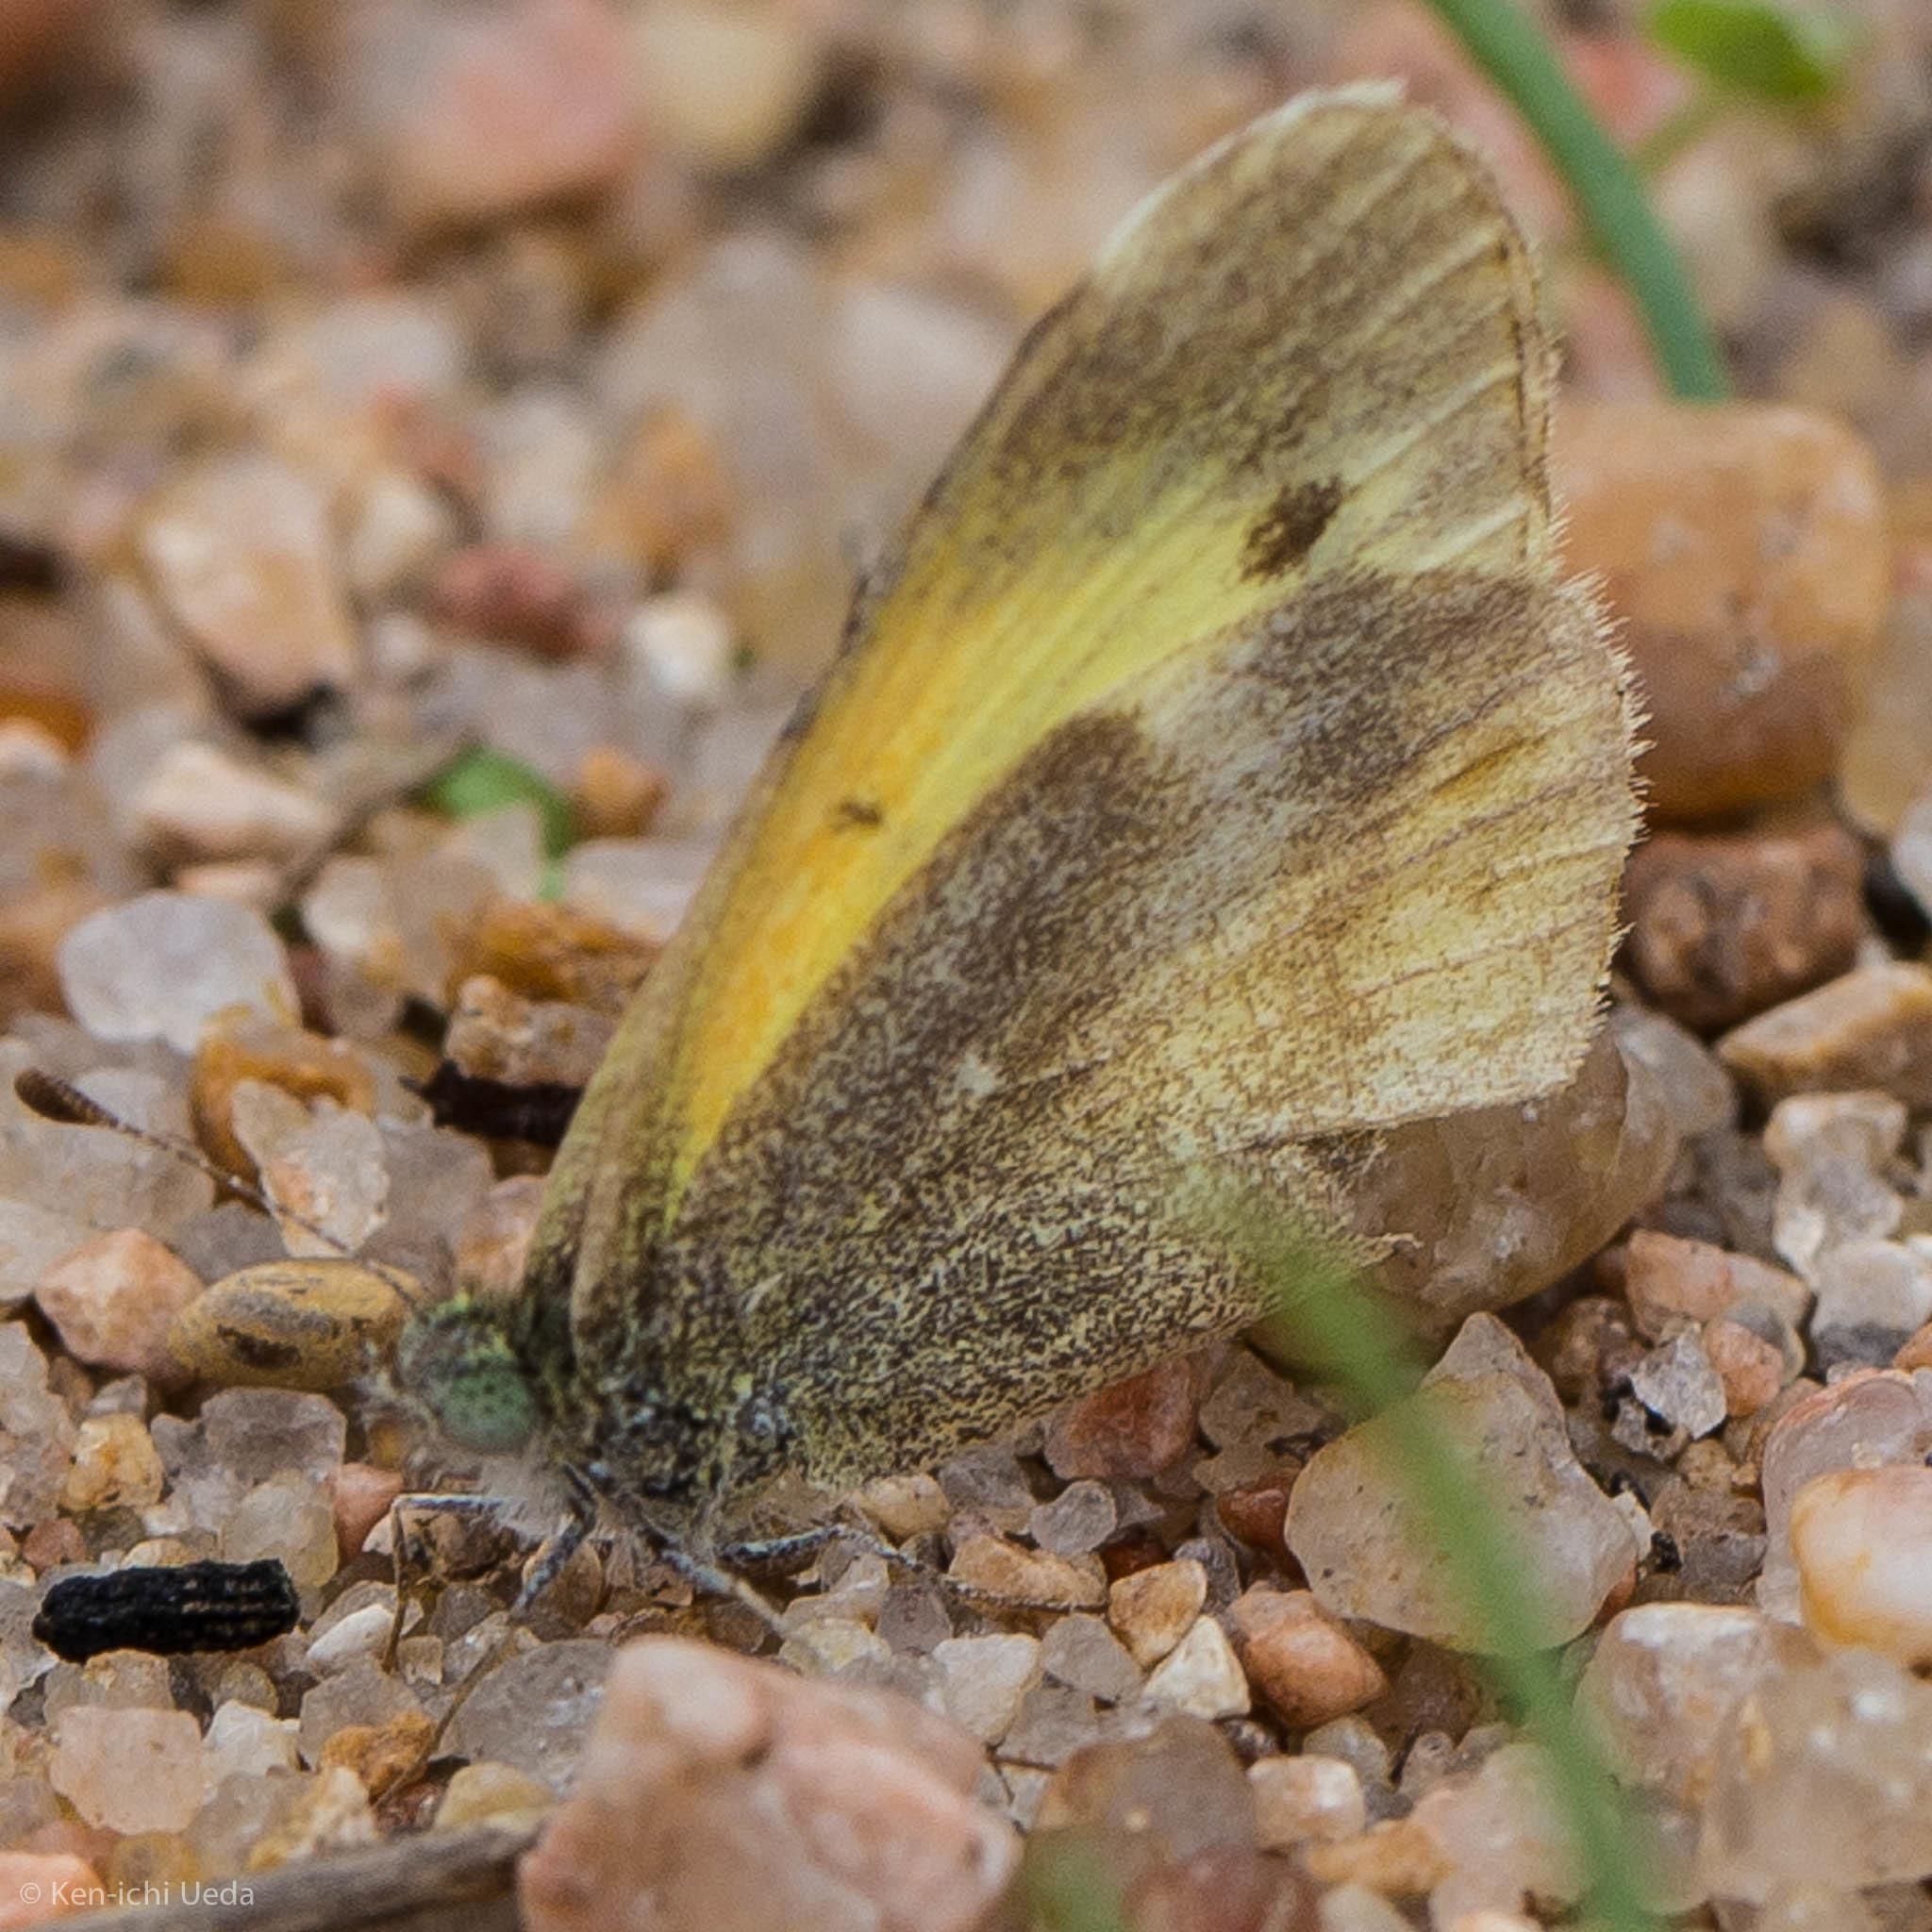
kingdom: Animalia
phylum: Arthropoda
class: Insecta
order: Lepidoptera
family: Pieridae
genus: Nathalis
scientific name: Nathalis iole
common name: Dainty sulphur
